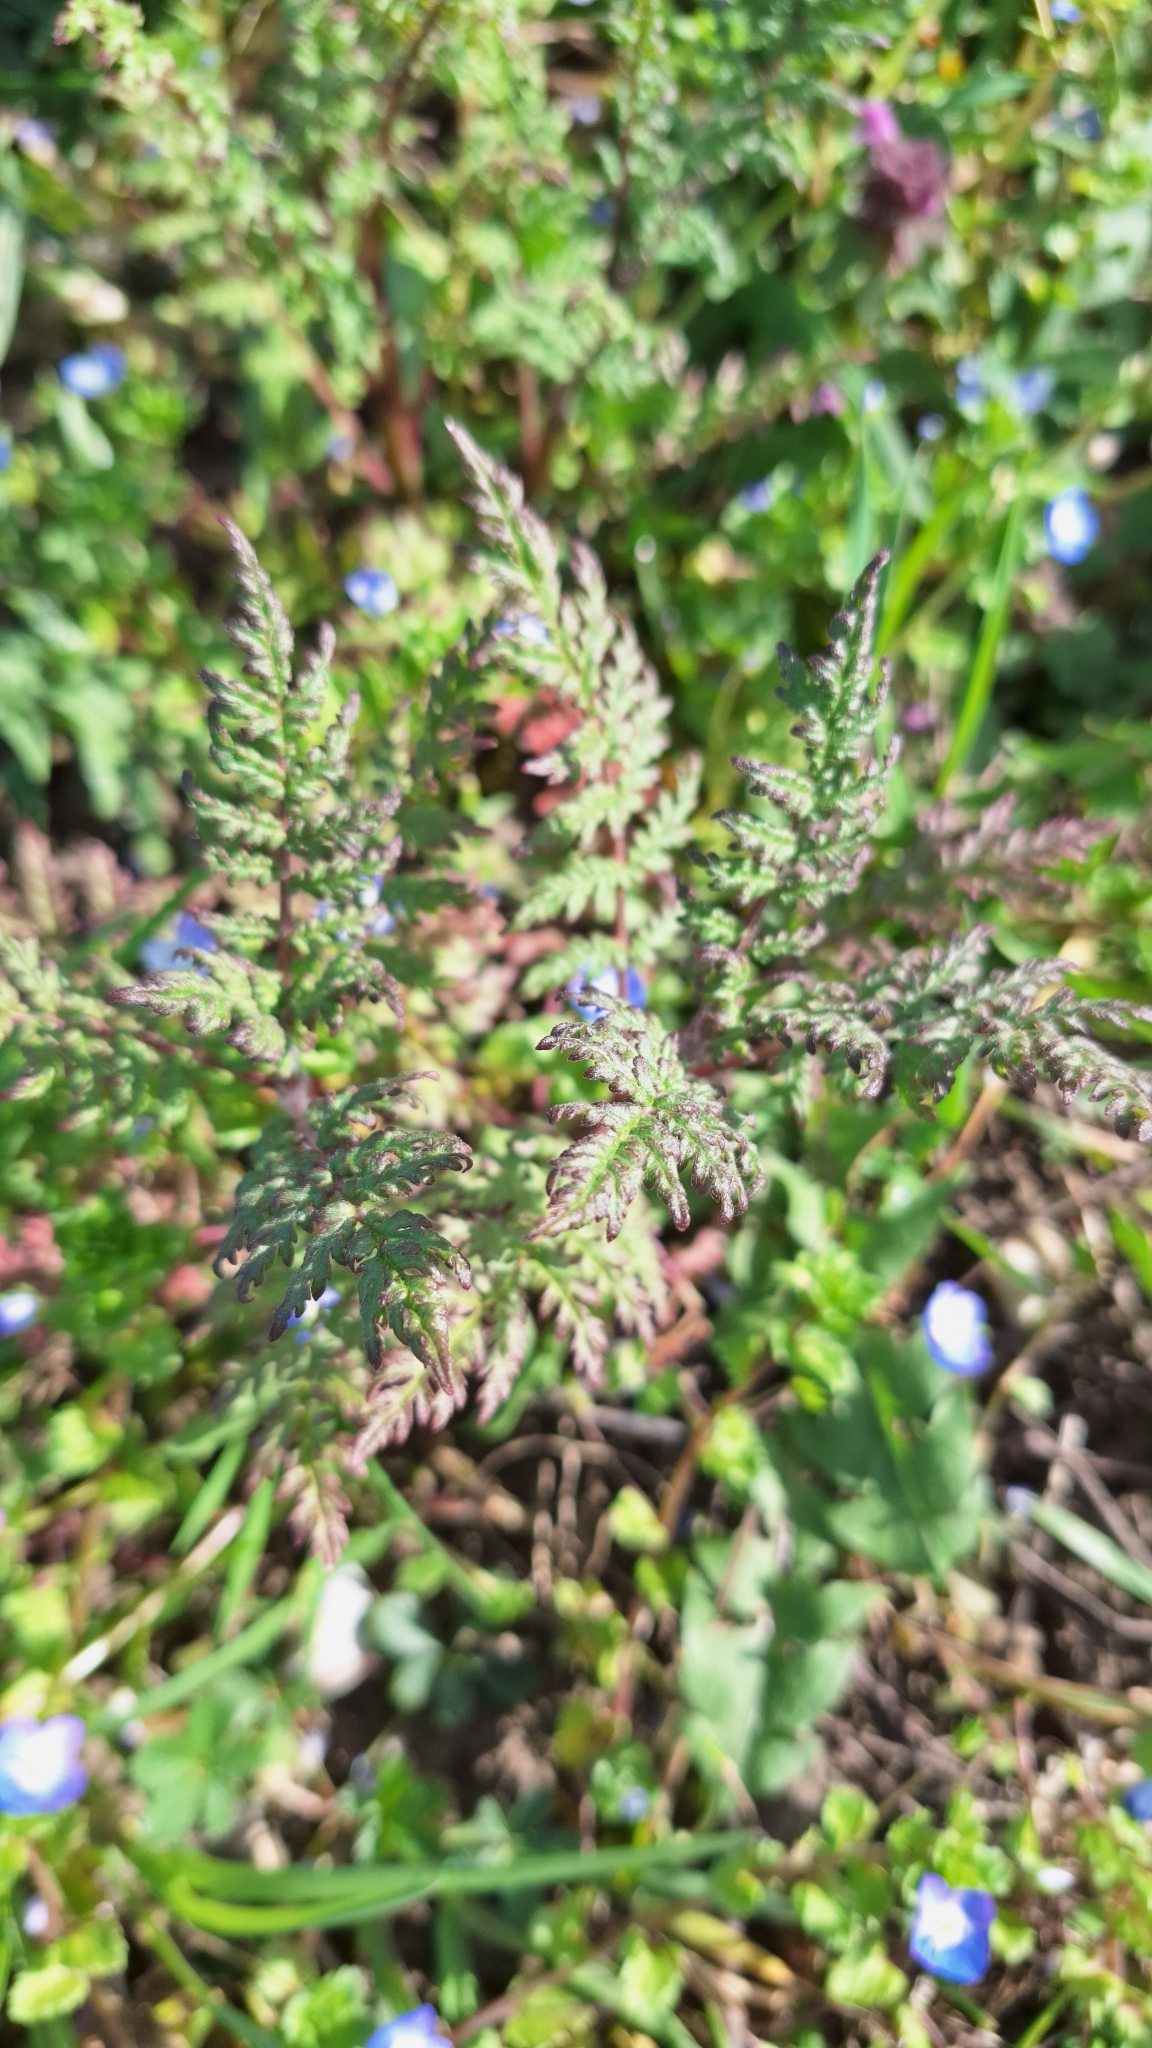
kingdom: Plantae
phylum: Tracheophyta
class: Magnoliopsida
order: Boraginales
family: Hydrophyllaceae
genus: Phacelia
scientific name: Phacelia tanacetifolia
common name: Phacelia
